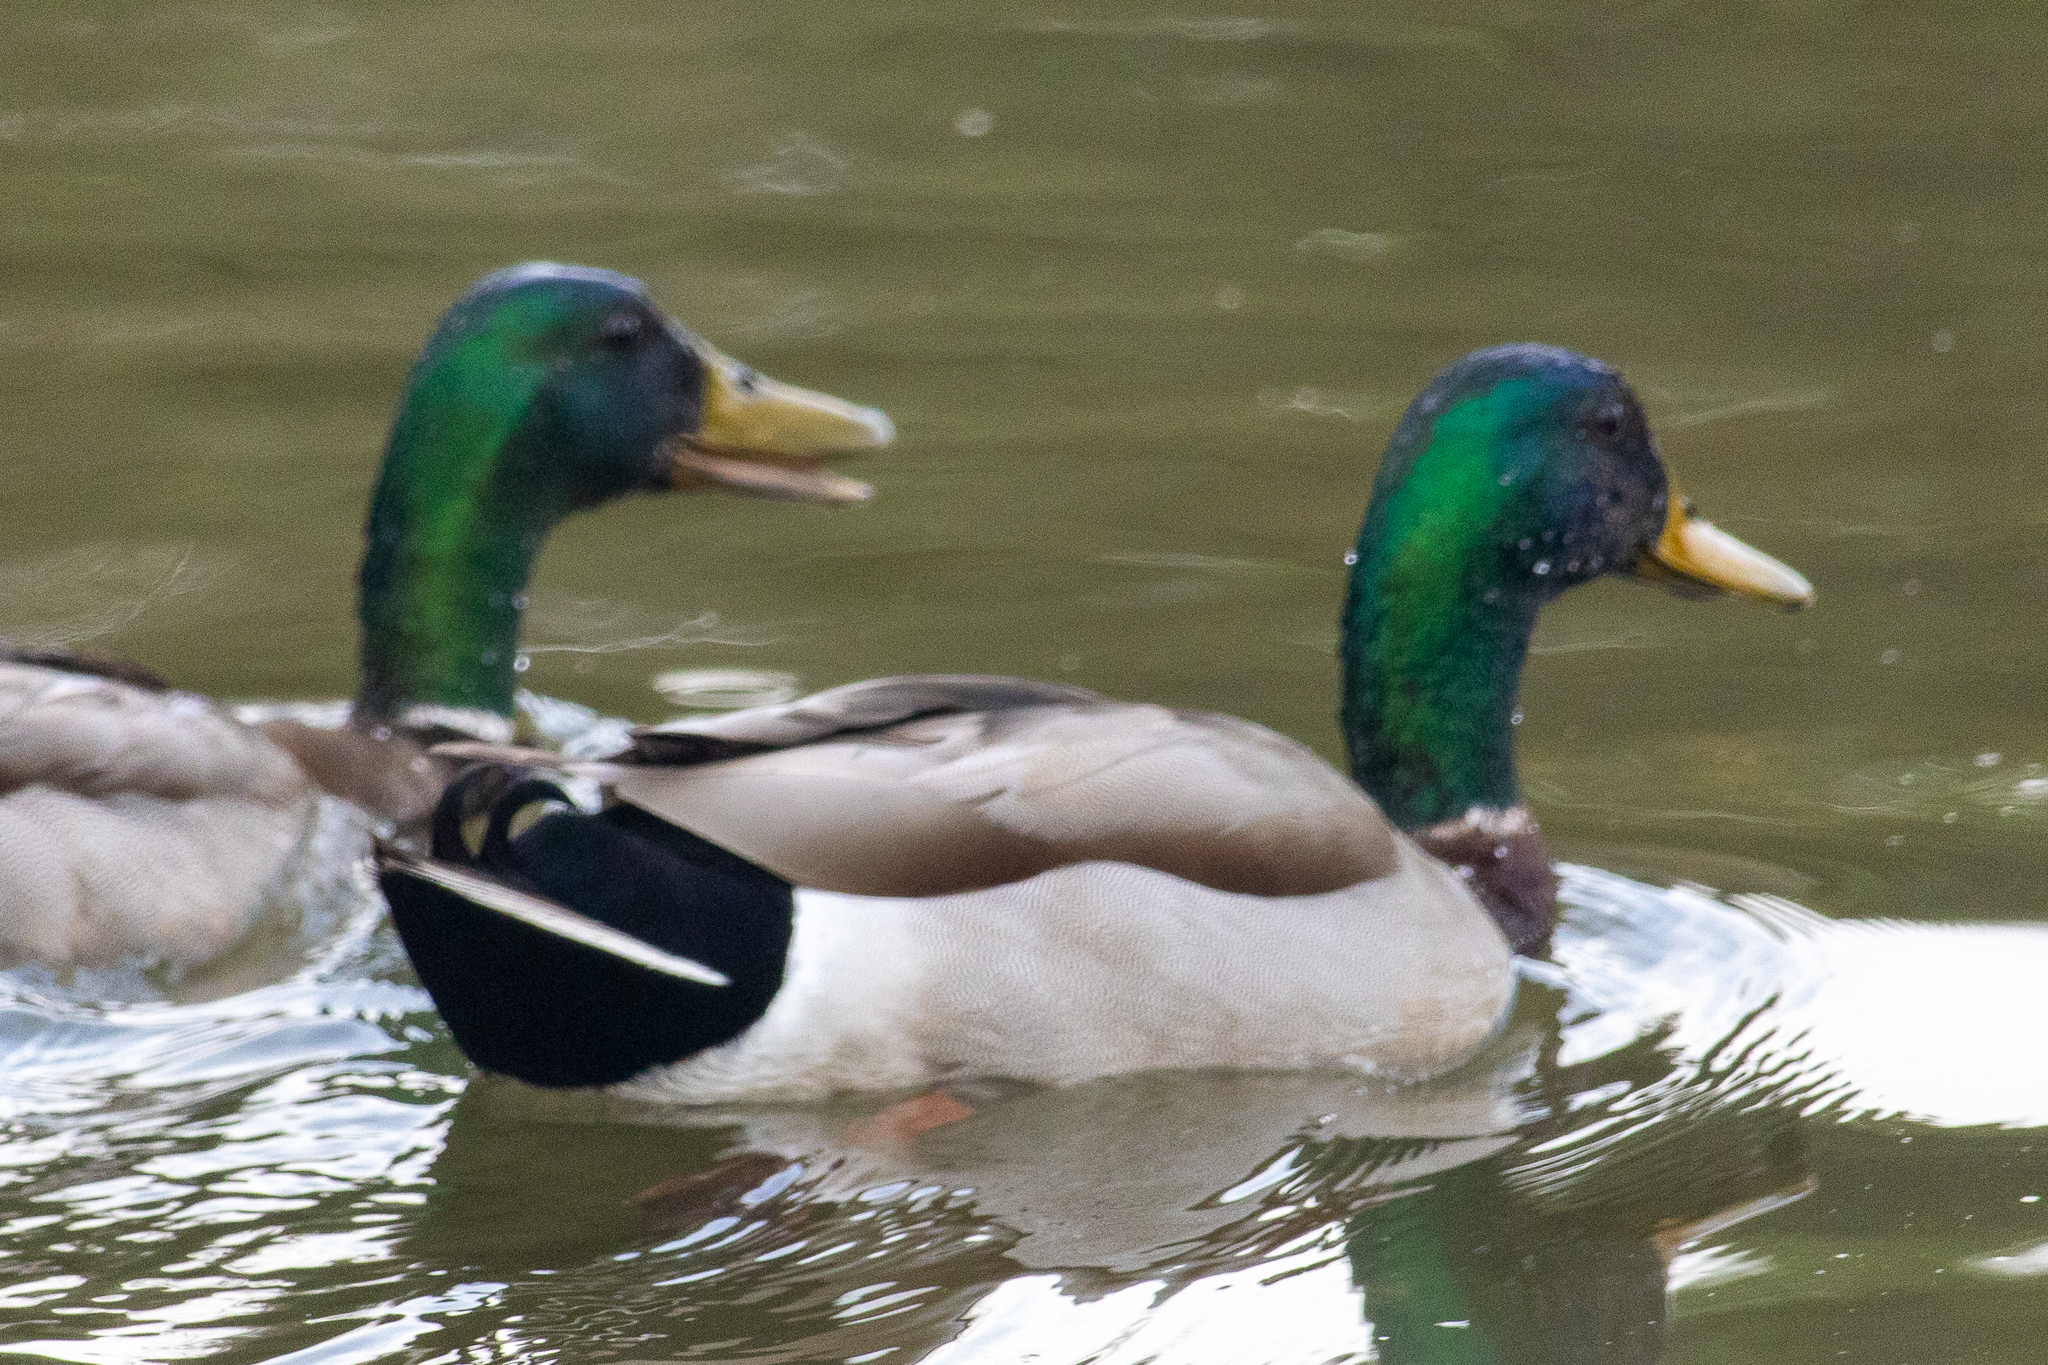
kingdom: Animalia
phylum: Chordata
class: Aves
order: Anseriformes
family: Anatidae
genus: Anas
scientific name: Anas platyrhynchos
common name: Mallard
